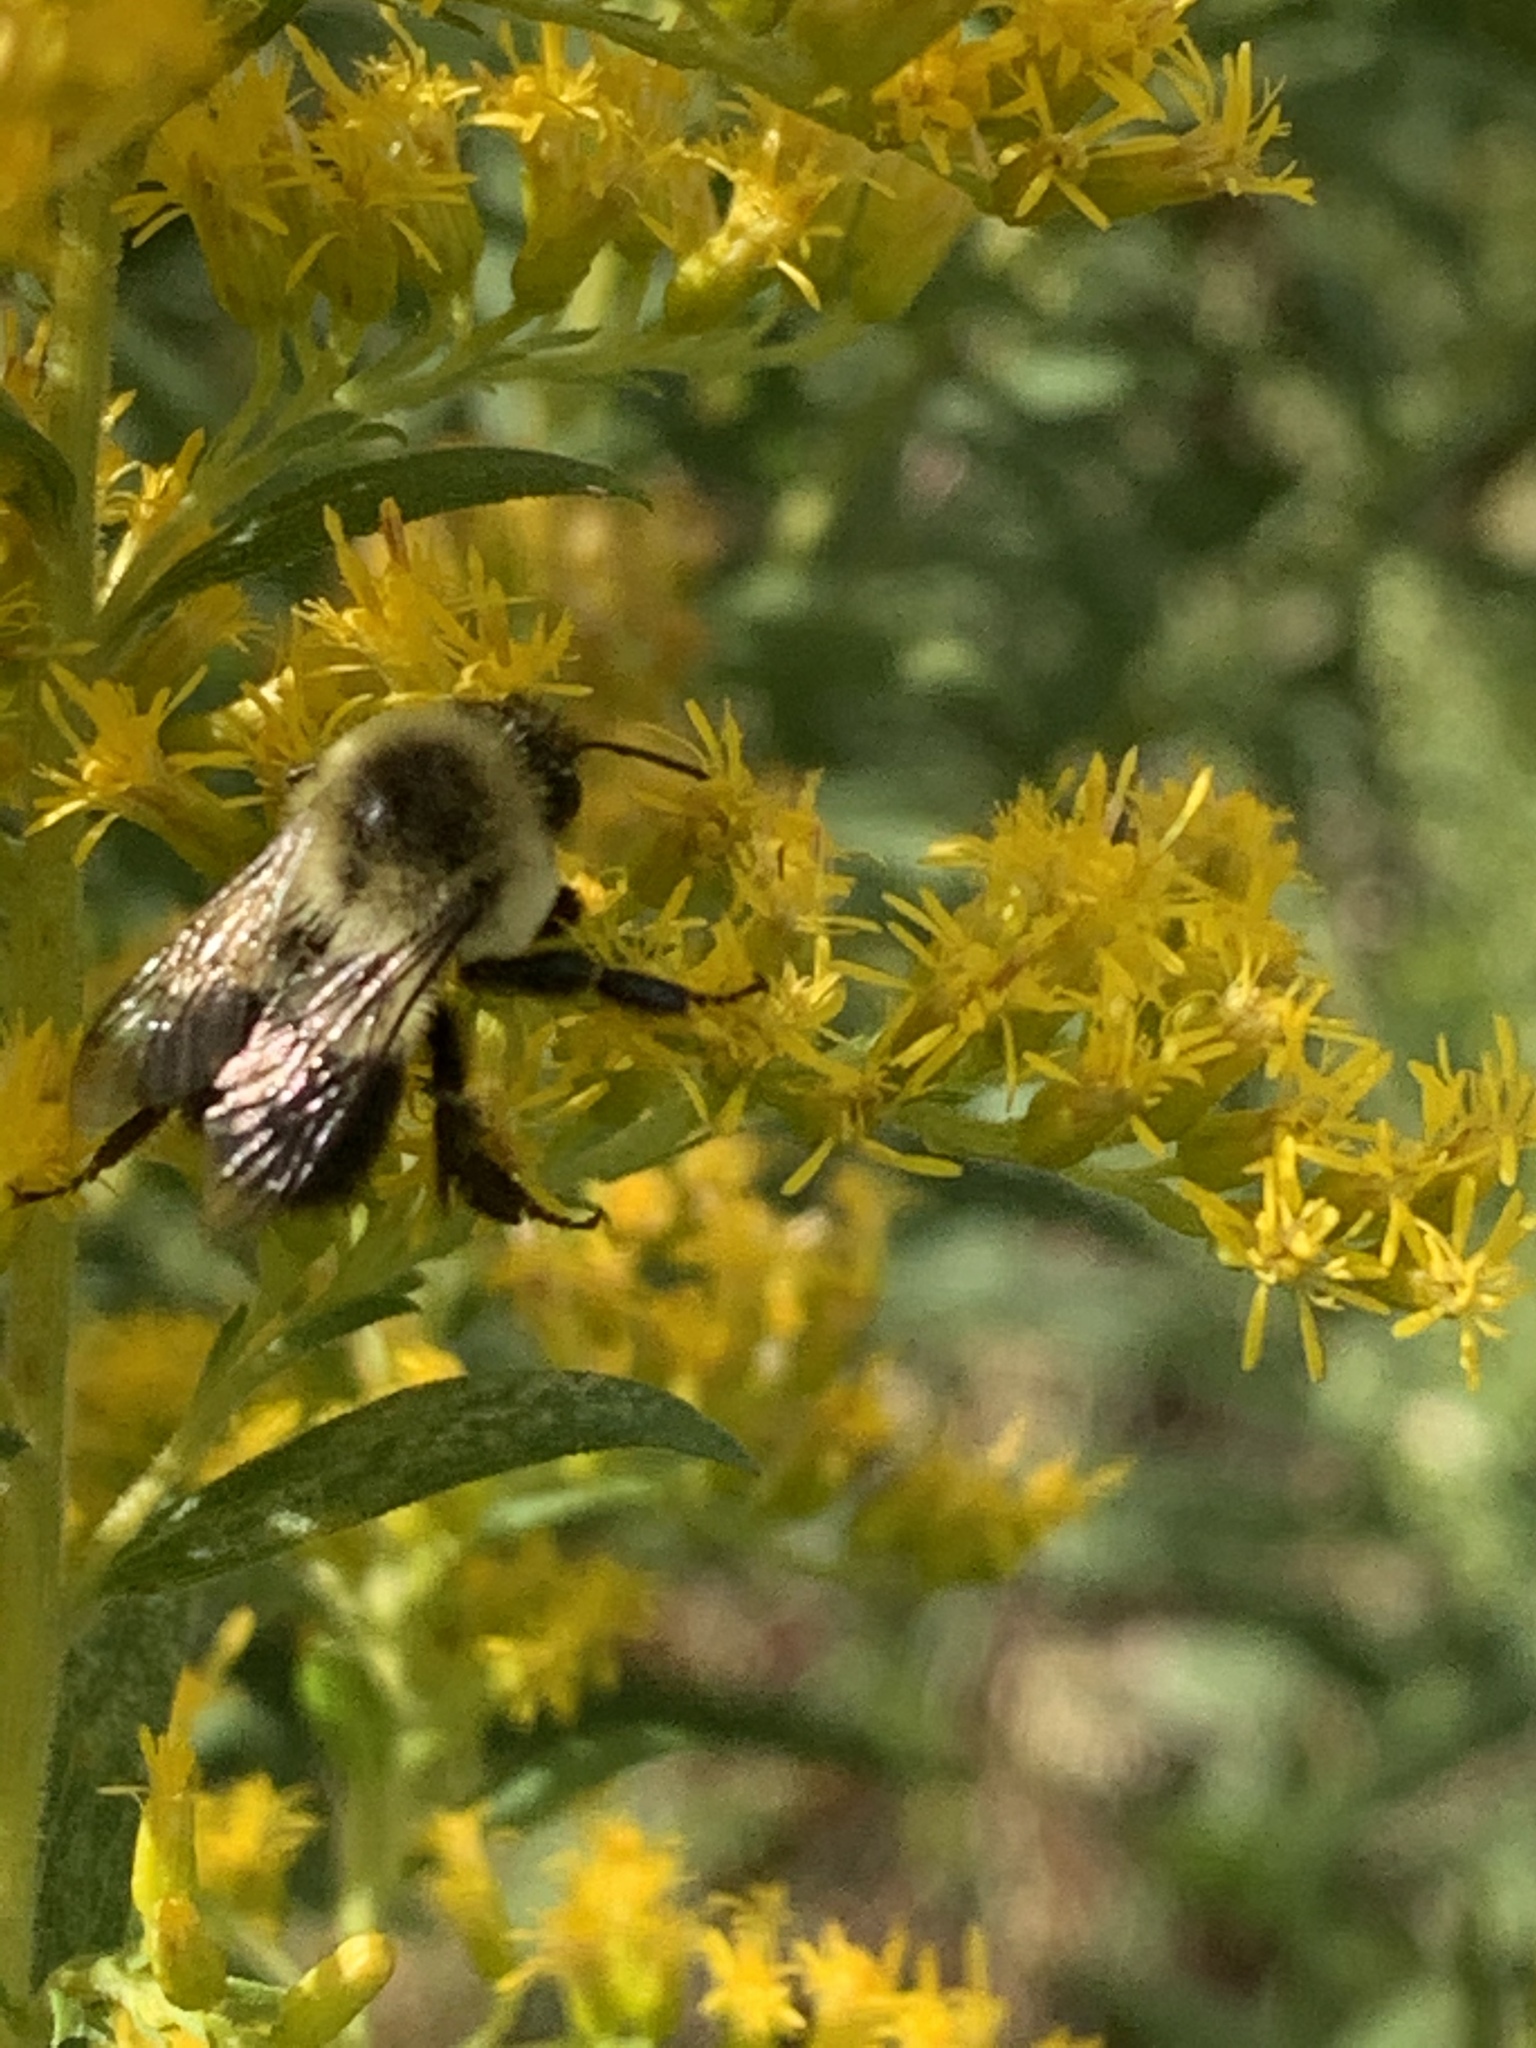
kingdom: Animalia
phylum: Arthropoda
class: Insecta
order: Hymenoptera
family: Apidae
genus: Bombus
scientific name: Bombus impatiens
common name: Common eastern bumble bee
